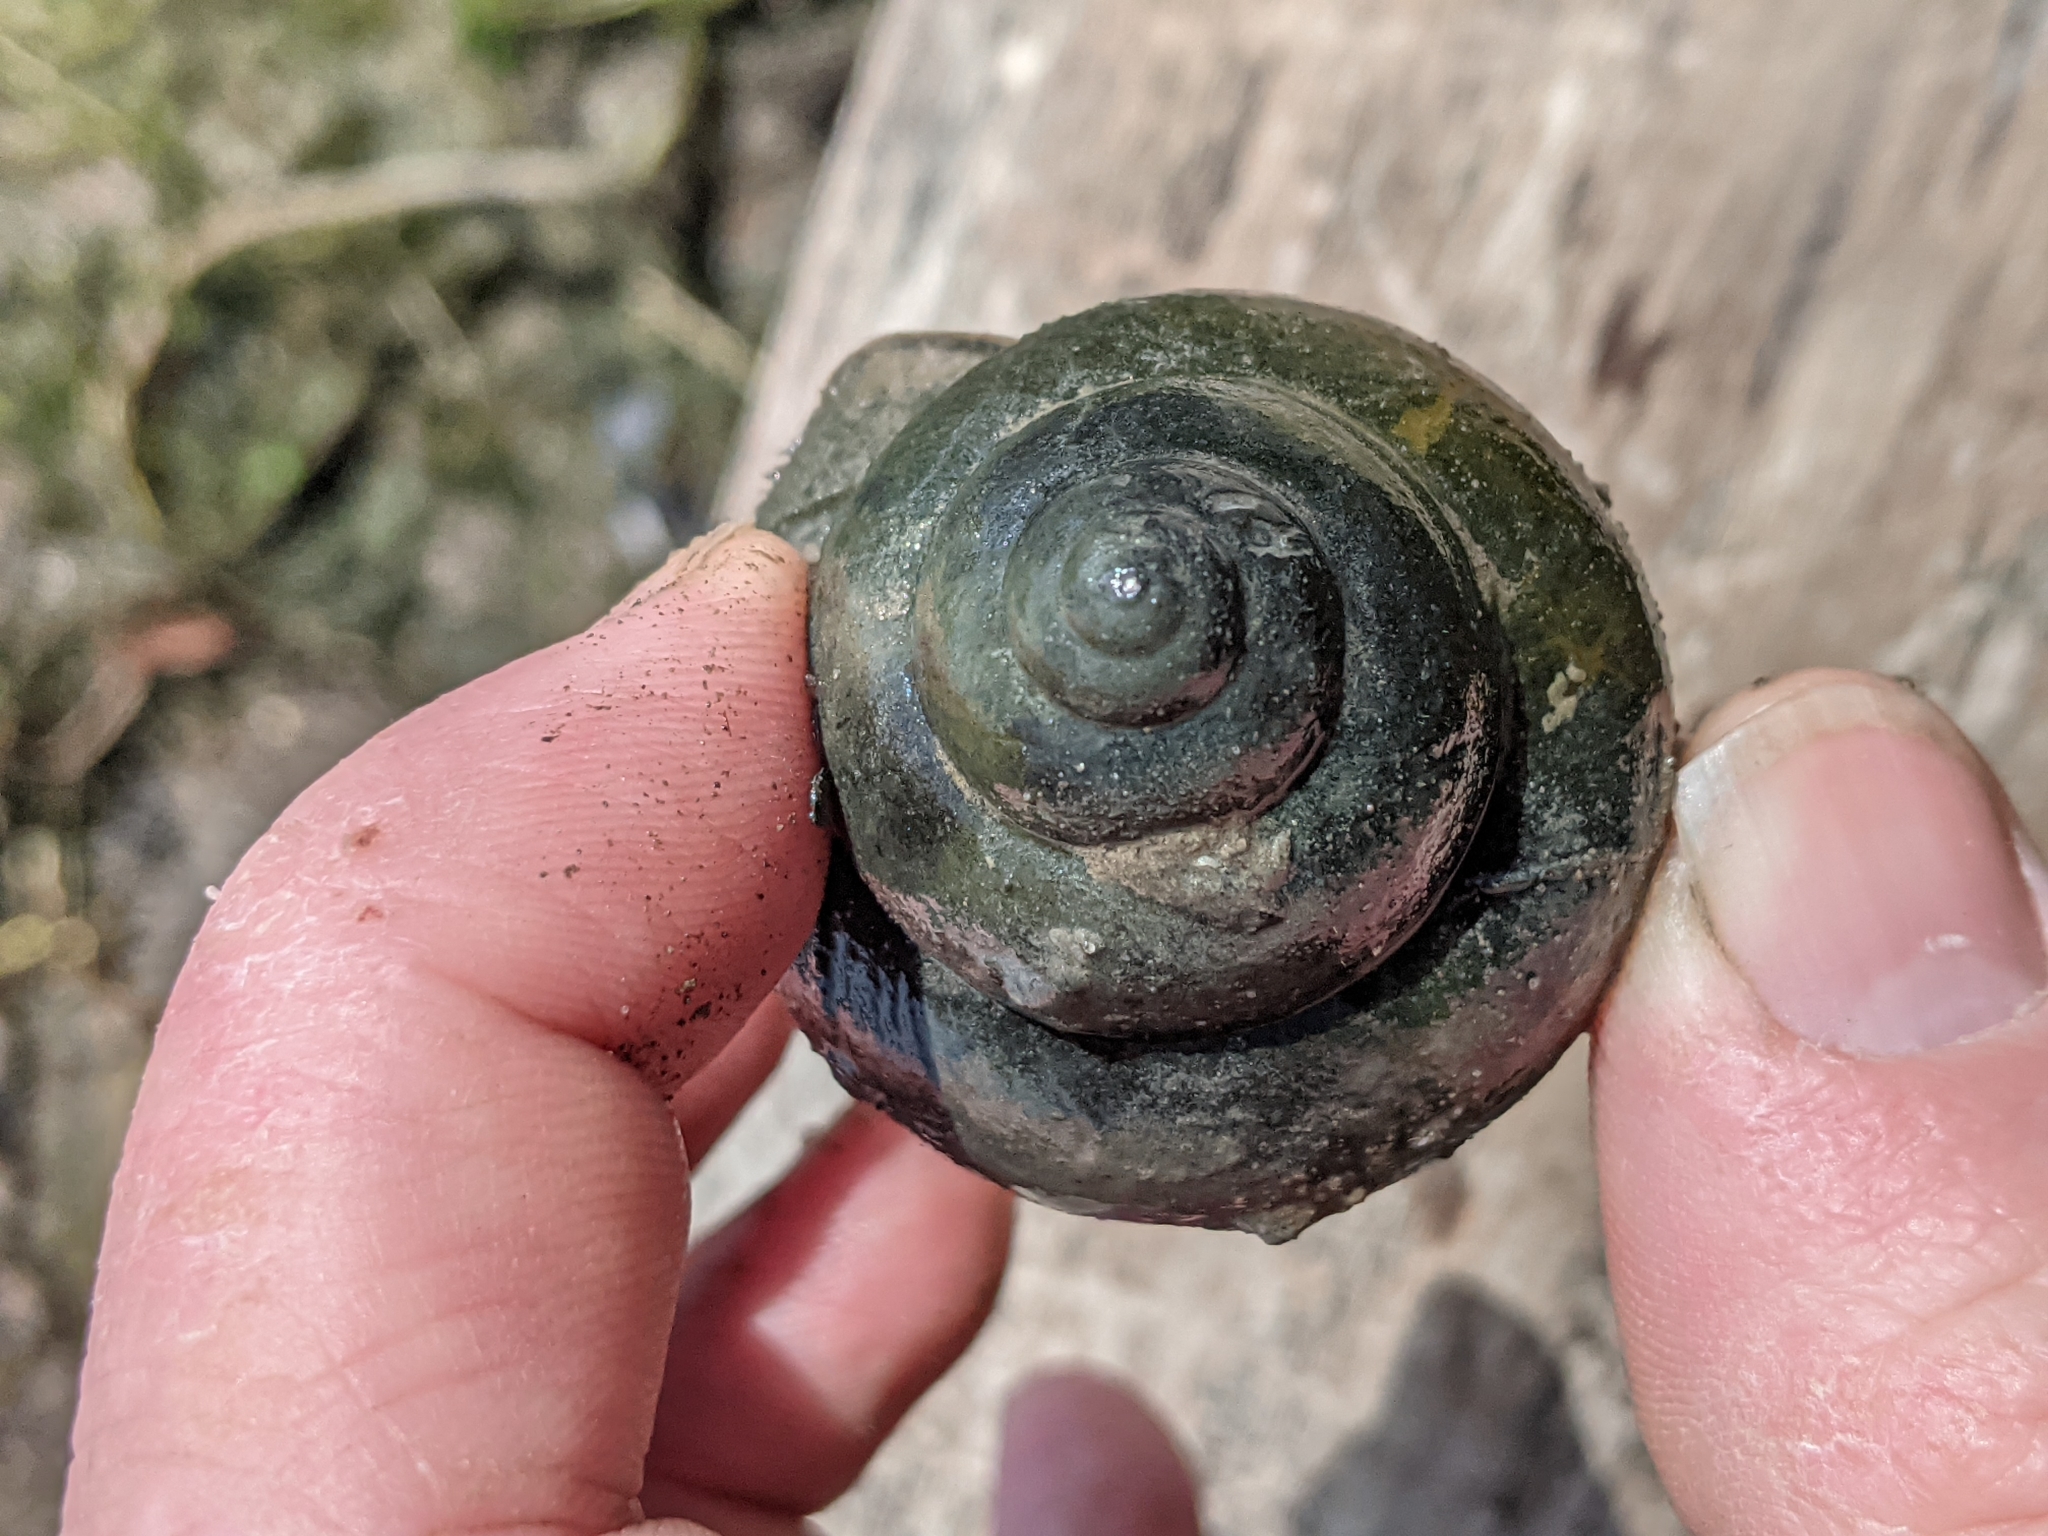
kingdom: Animalia
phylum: Mollusca
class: Gastropoda
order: Architaenioglossa
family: Viviparidae
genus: Cipangopaludina
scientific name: Cipangopaludina chinensis
